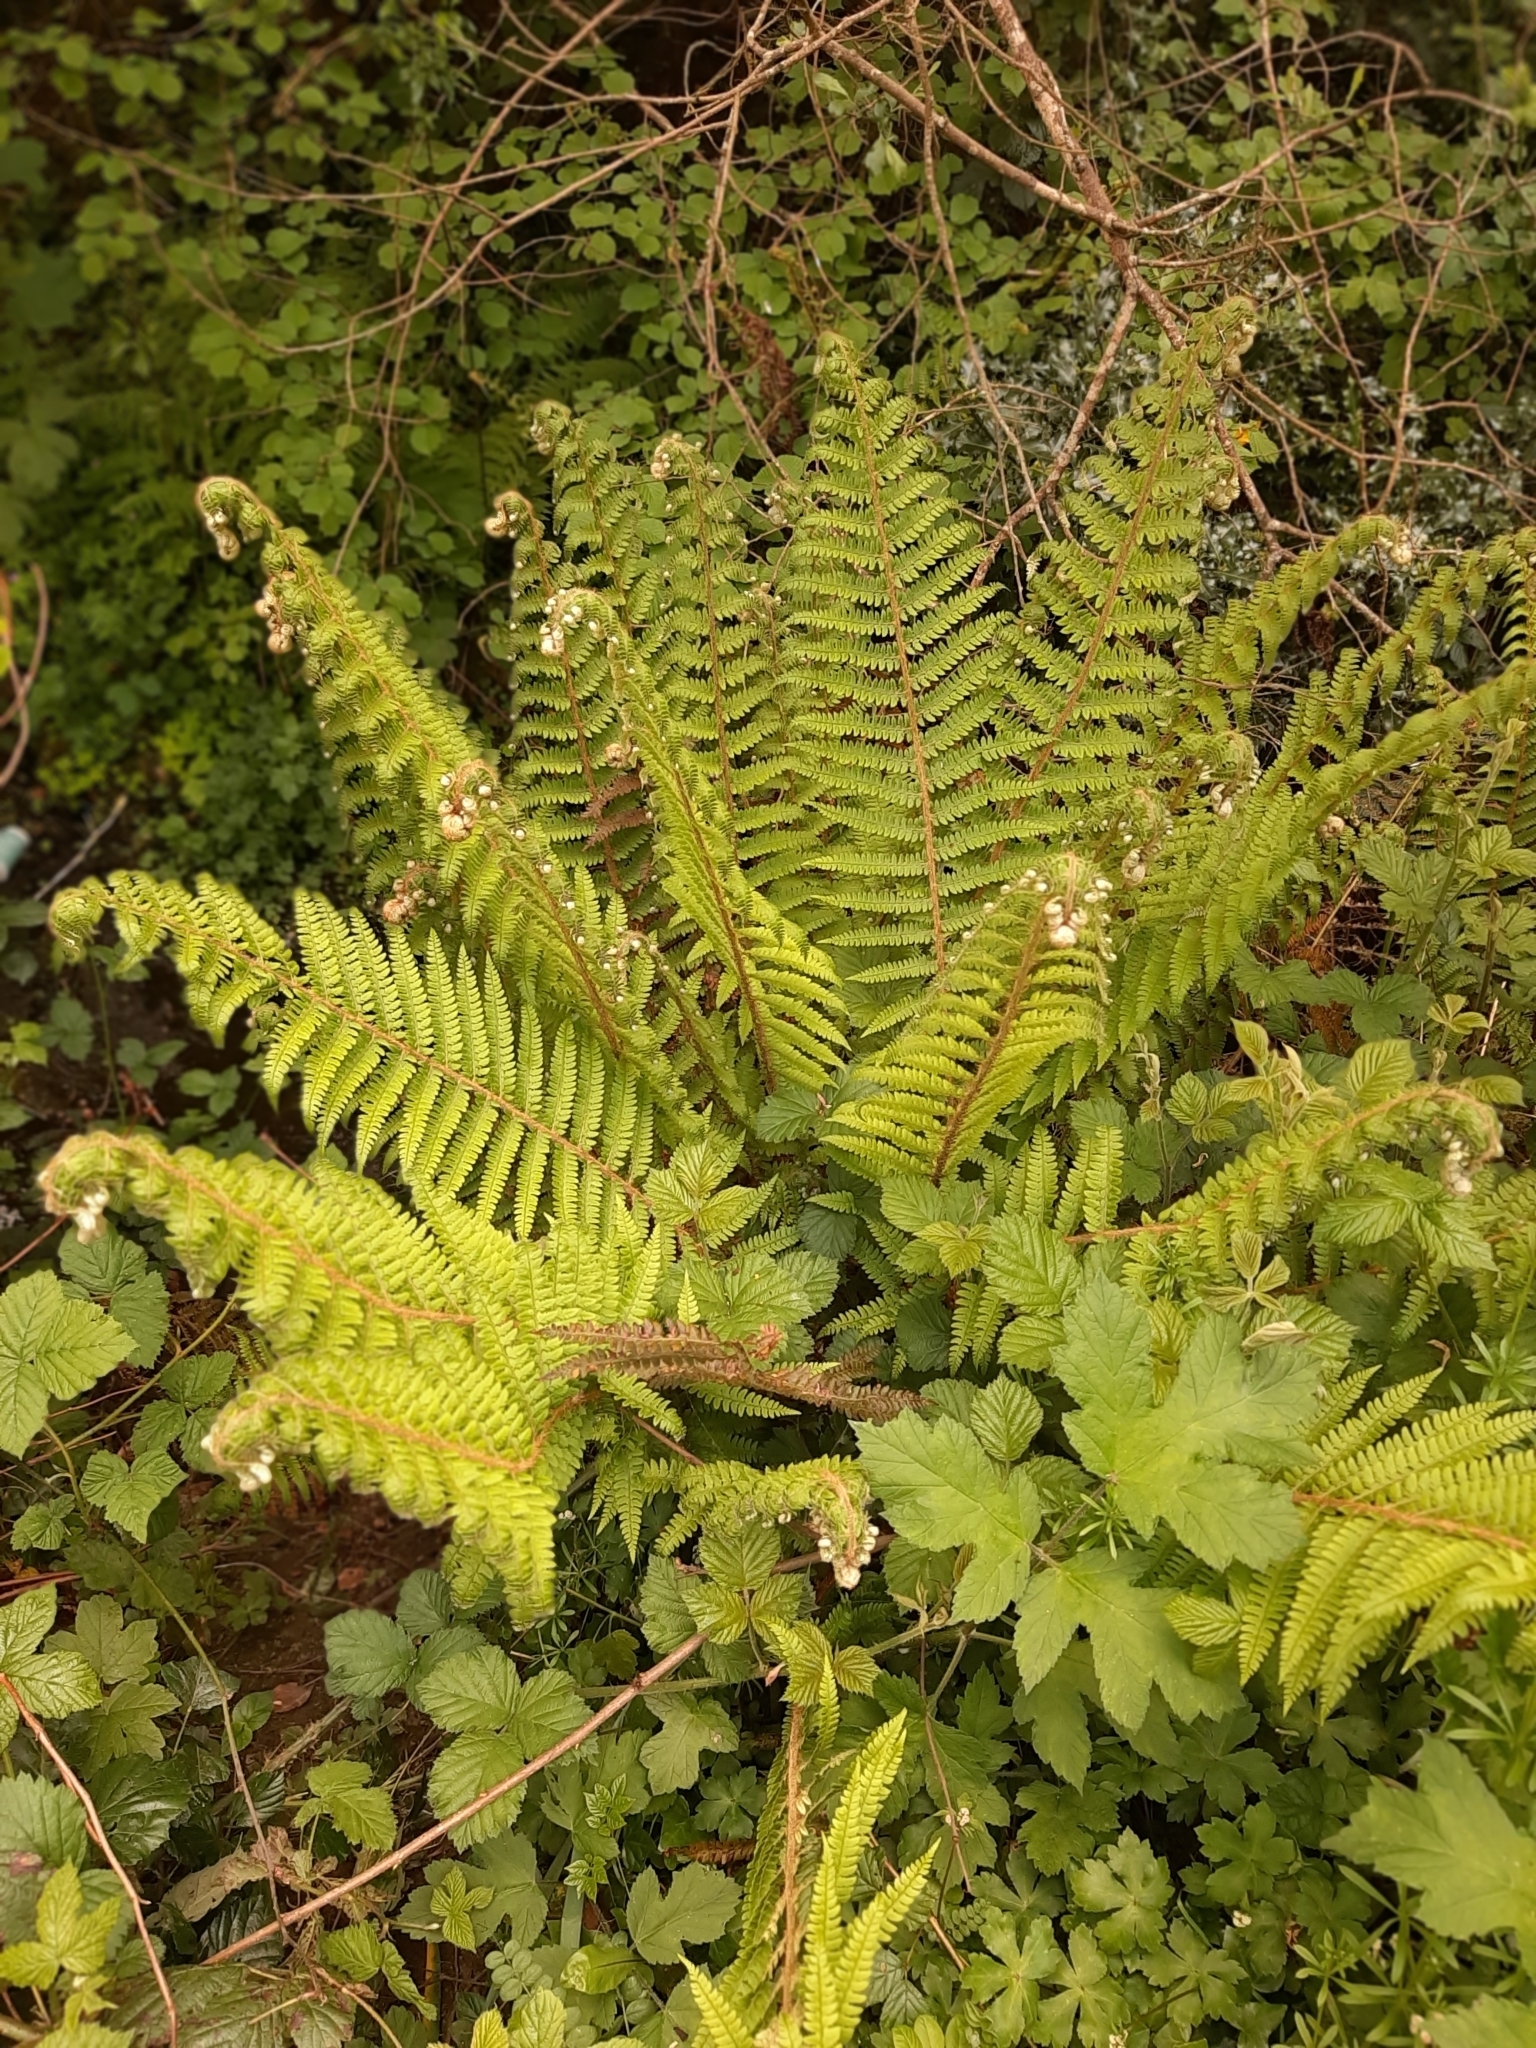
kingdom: Plantae
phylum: Tracheophyta
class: Polypodiopsida
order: Polypodiales
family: Dryopteridaceae
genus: Polystichum
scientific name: Polystichum setiferum
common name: Soft shield-fern
